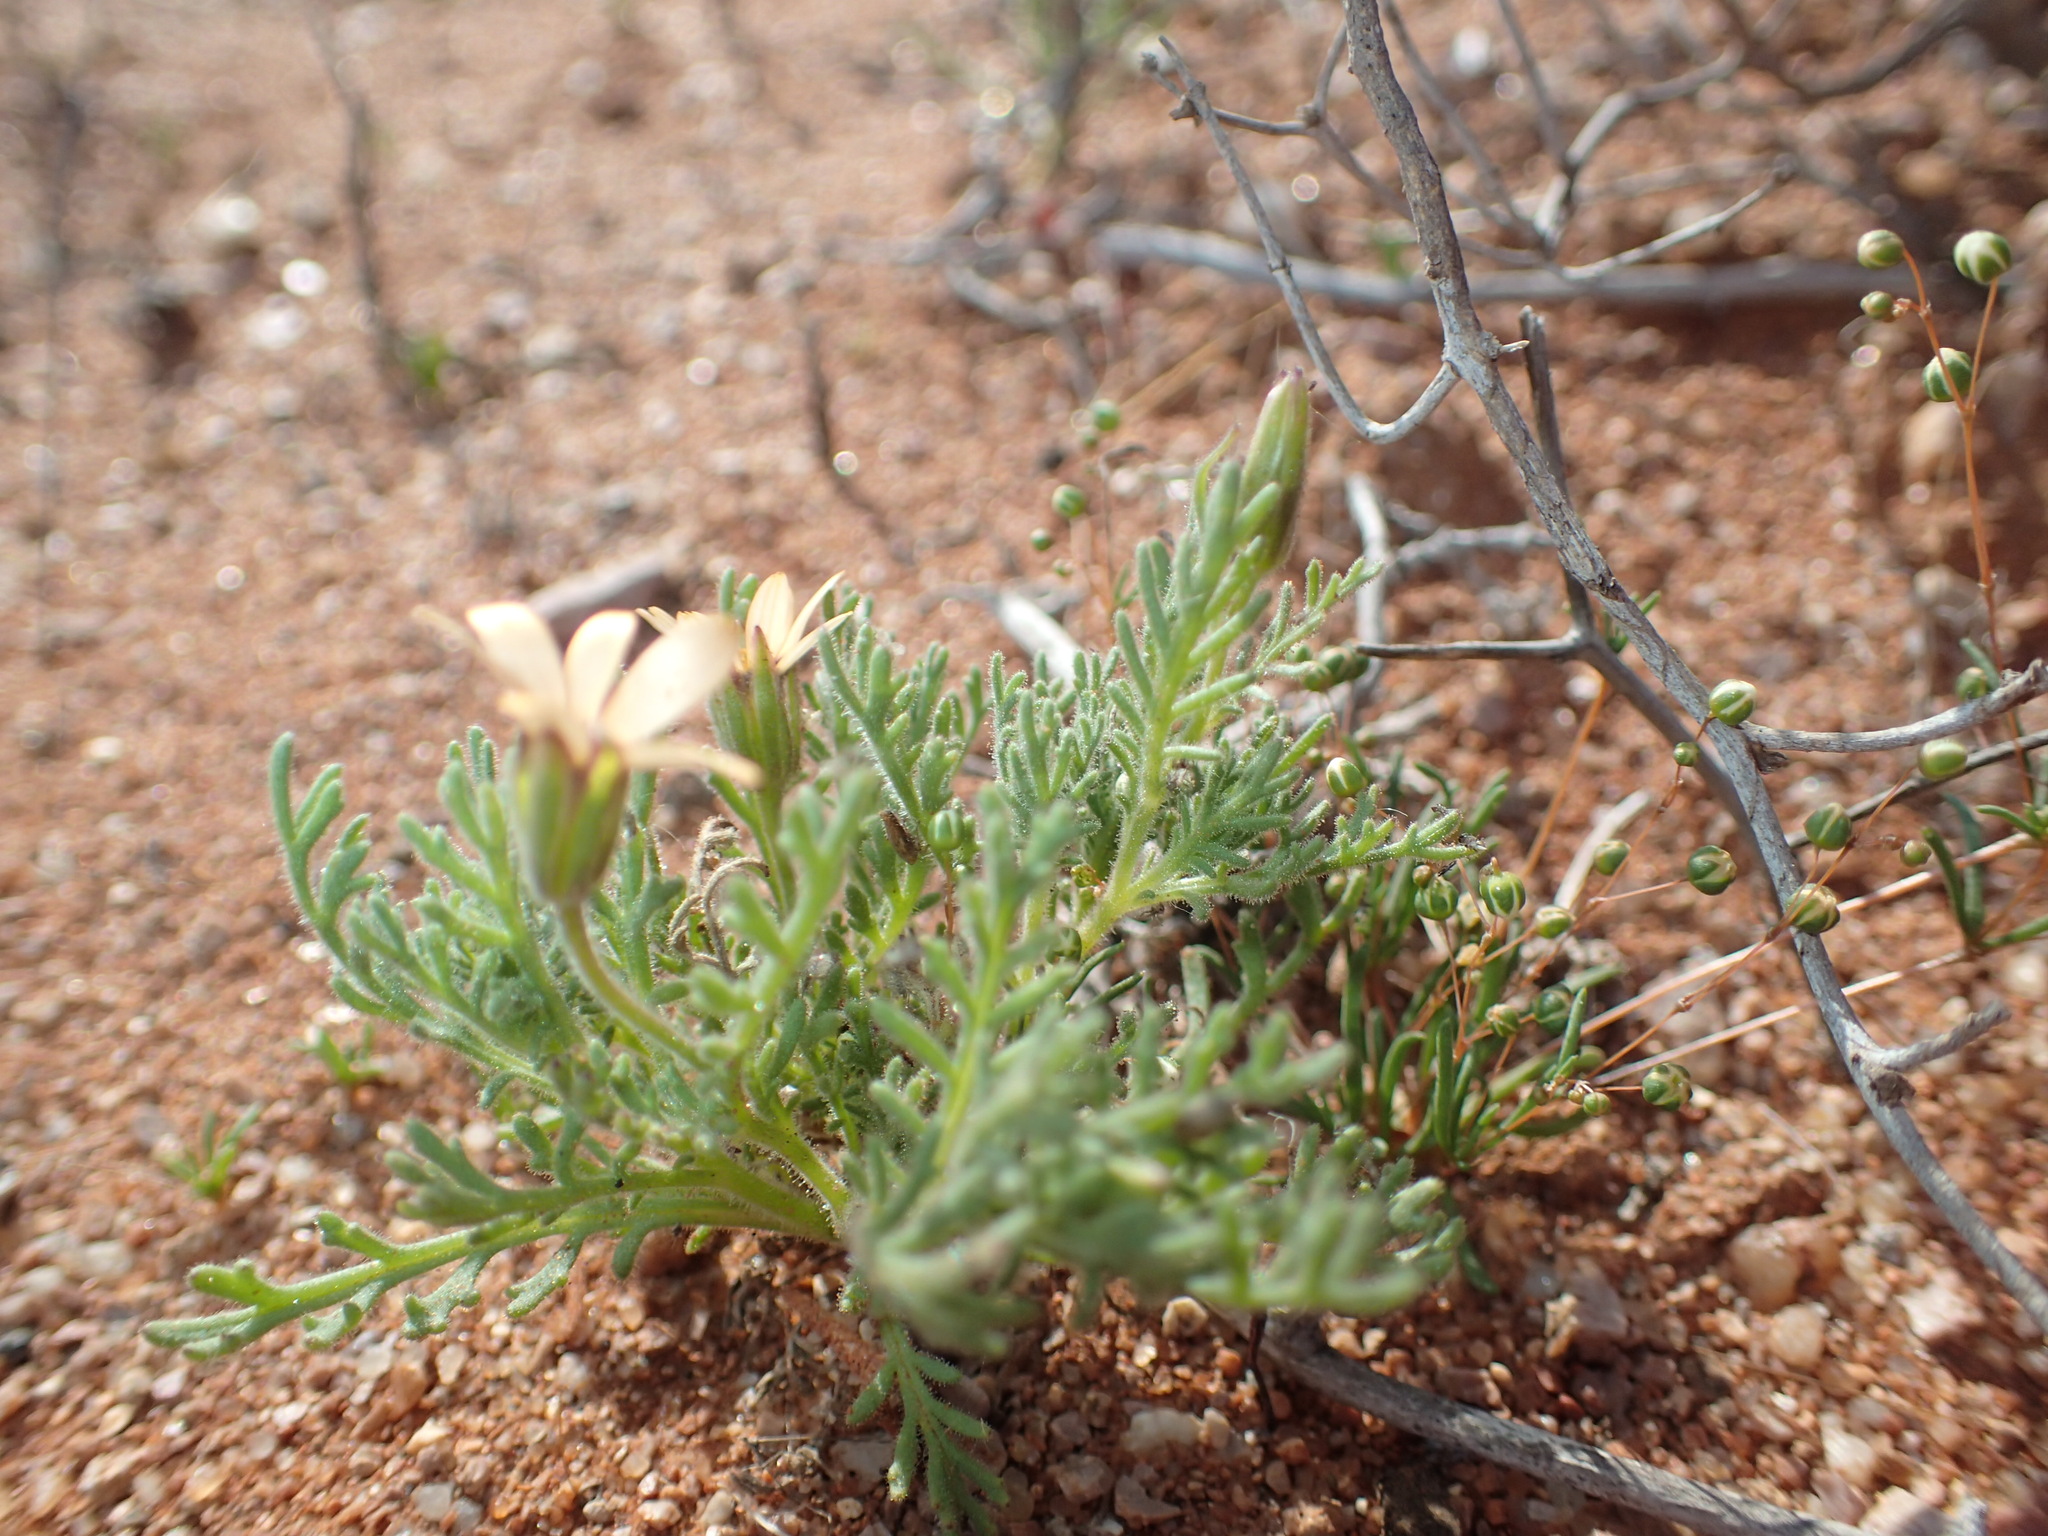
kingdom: Plantae
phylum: Tracheophyta
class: Magnoliopsida
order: Asterales
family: Asteraceae
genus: Dimorphotheca
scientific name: Dimorphotheca pinnata
